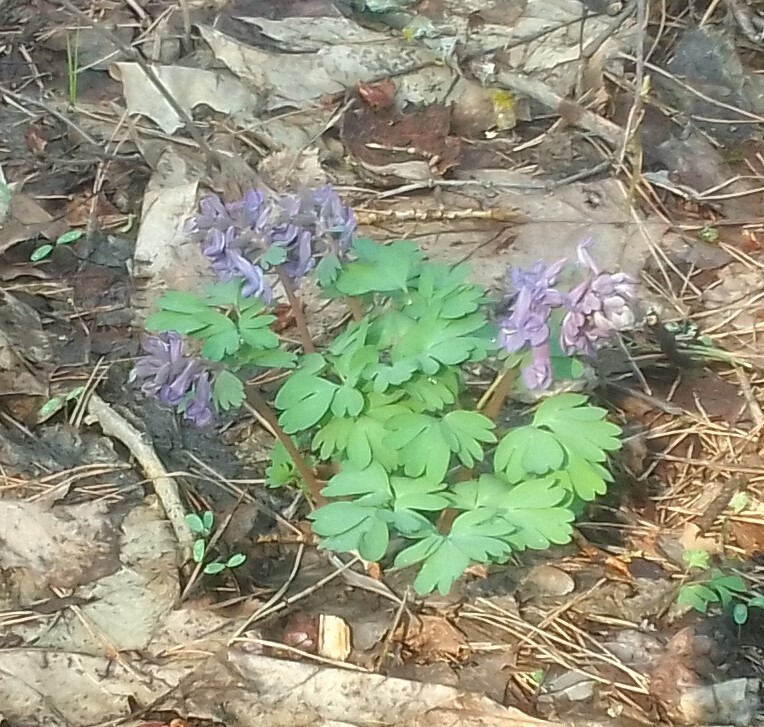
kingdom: Plantae
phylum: Tracheophyta
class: Magnoliopsida
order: Ranunculales
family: Papaveraceae
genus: Corydalis
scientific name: Corydalis solida
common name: Bird-in-a-bush
